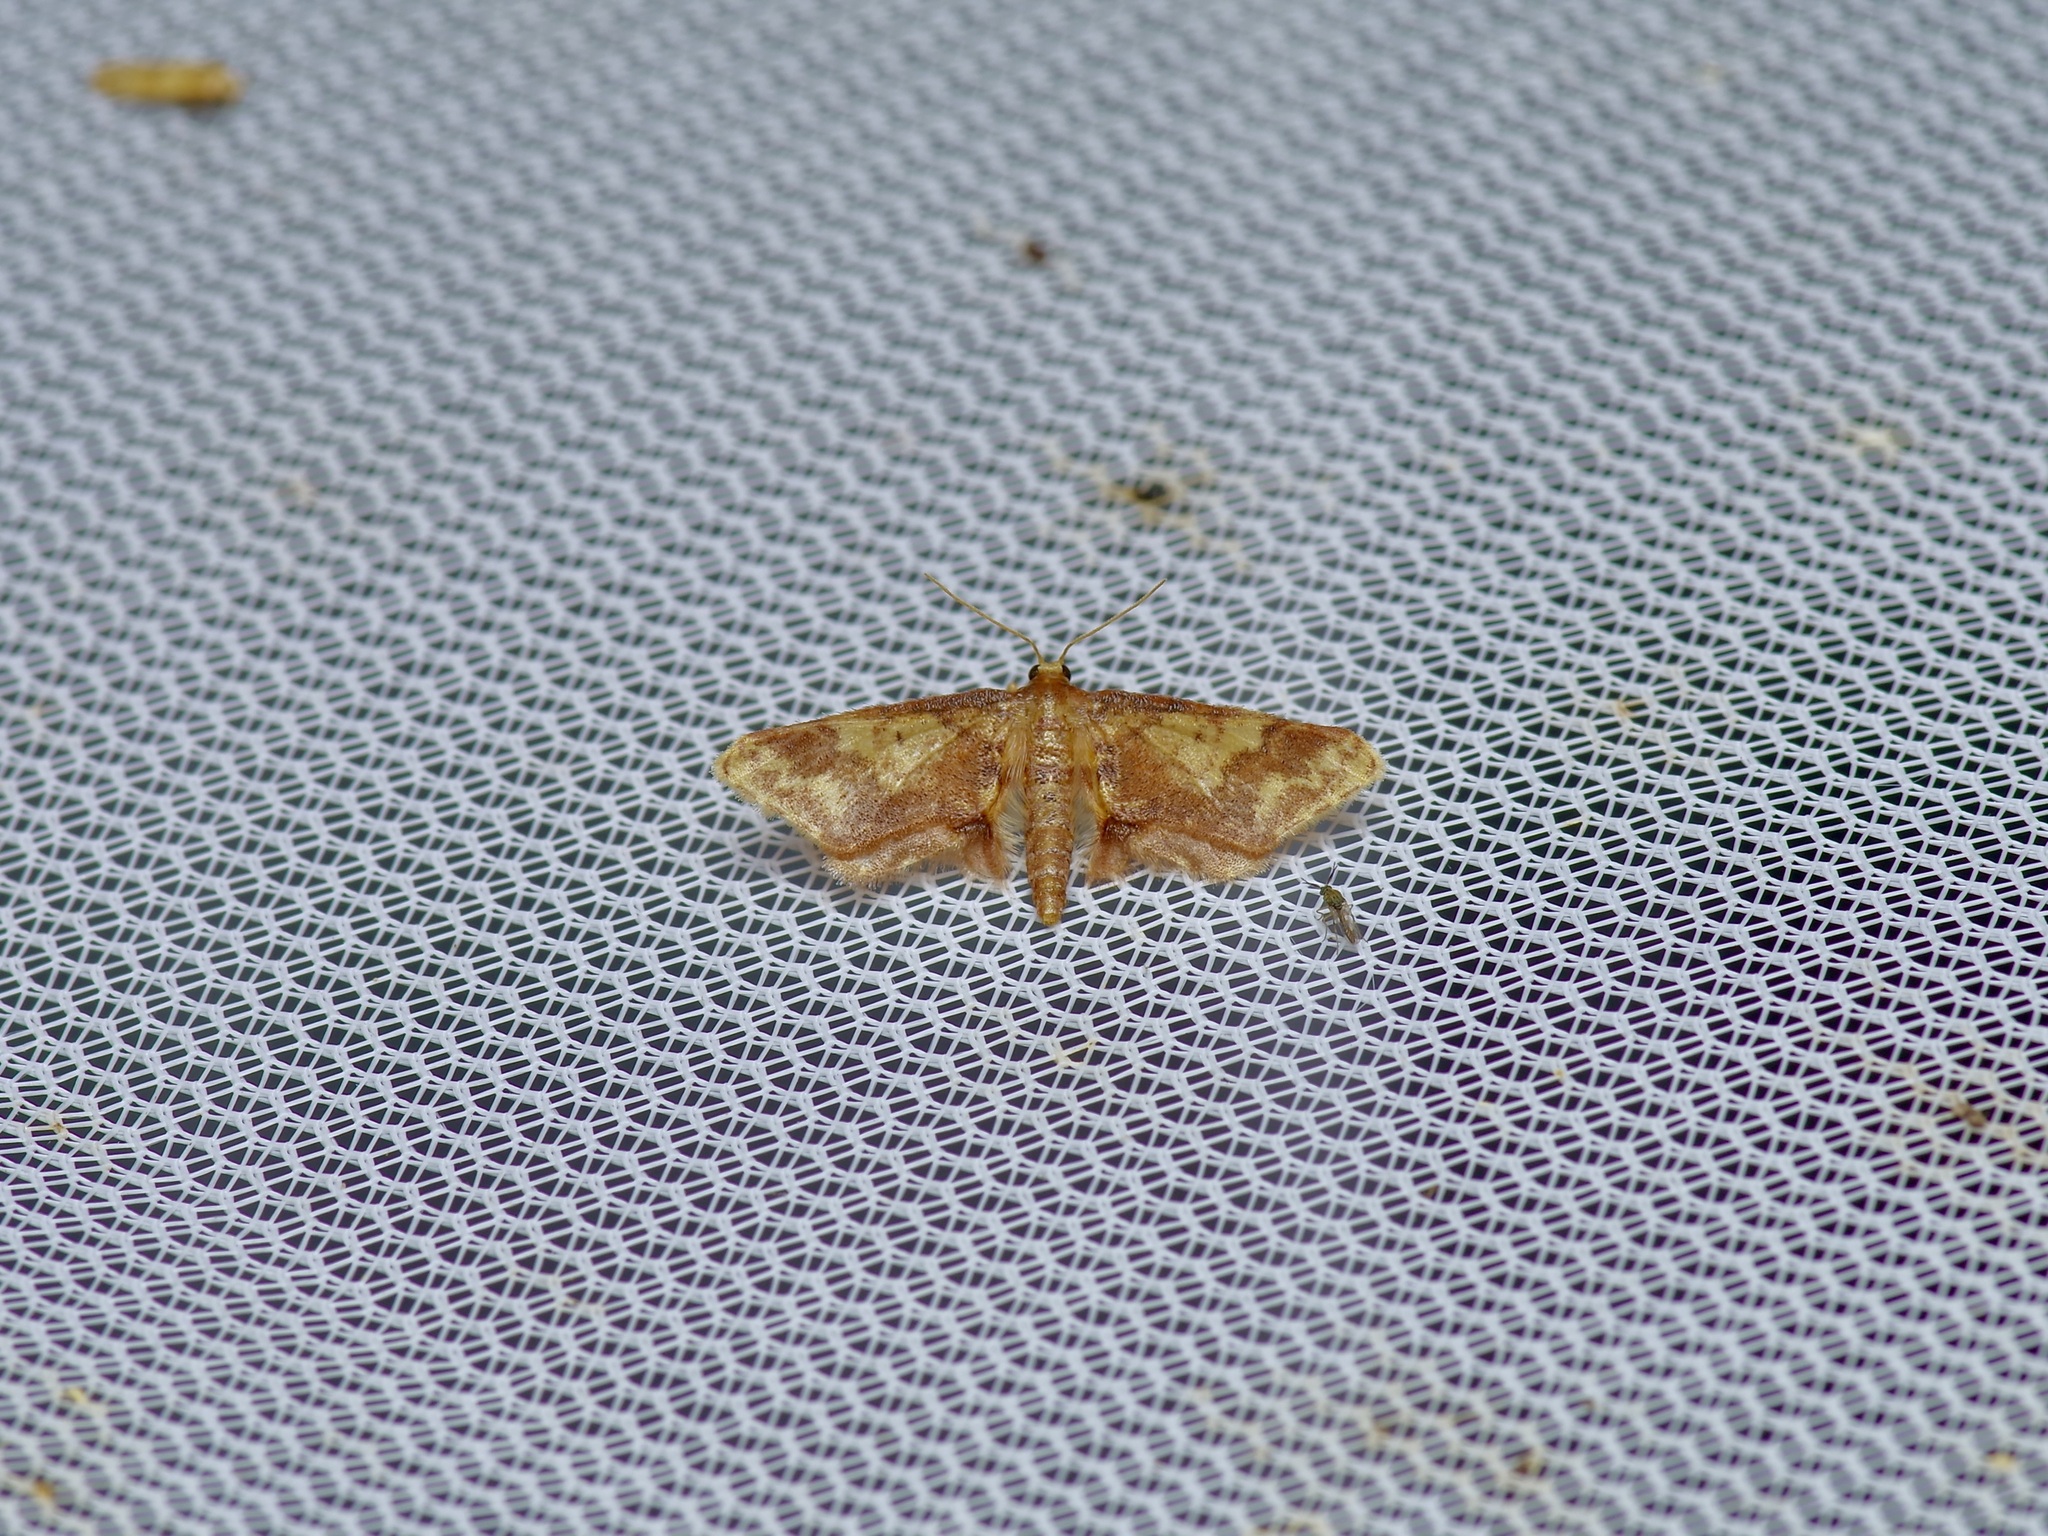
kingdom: Animalia
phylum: Arthropoda
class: Insecta
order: Lepidoptera
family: Geometridae
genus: Idaea
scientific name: Idaea furciferata
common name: Notch-winged wave
